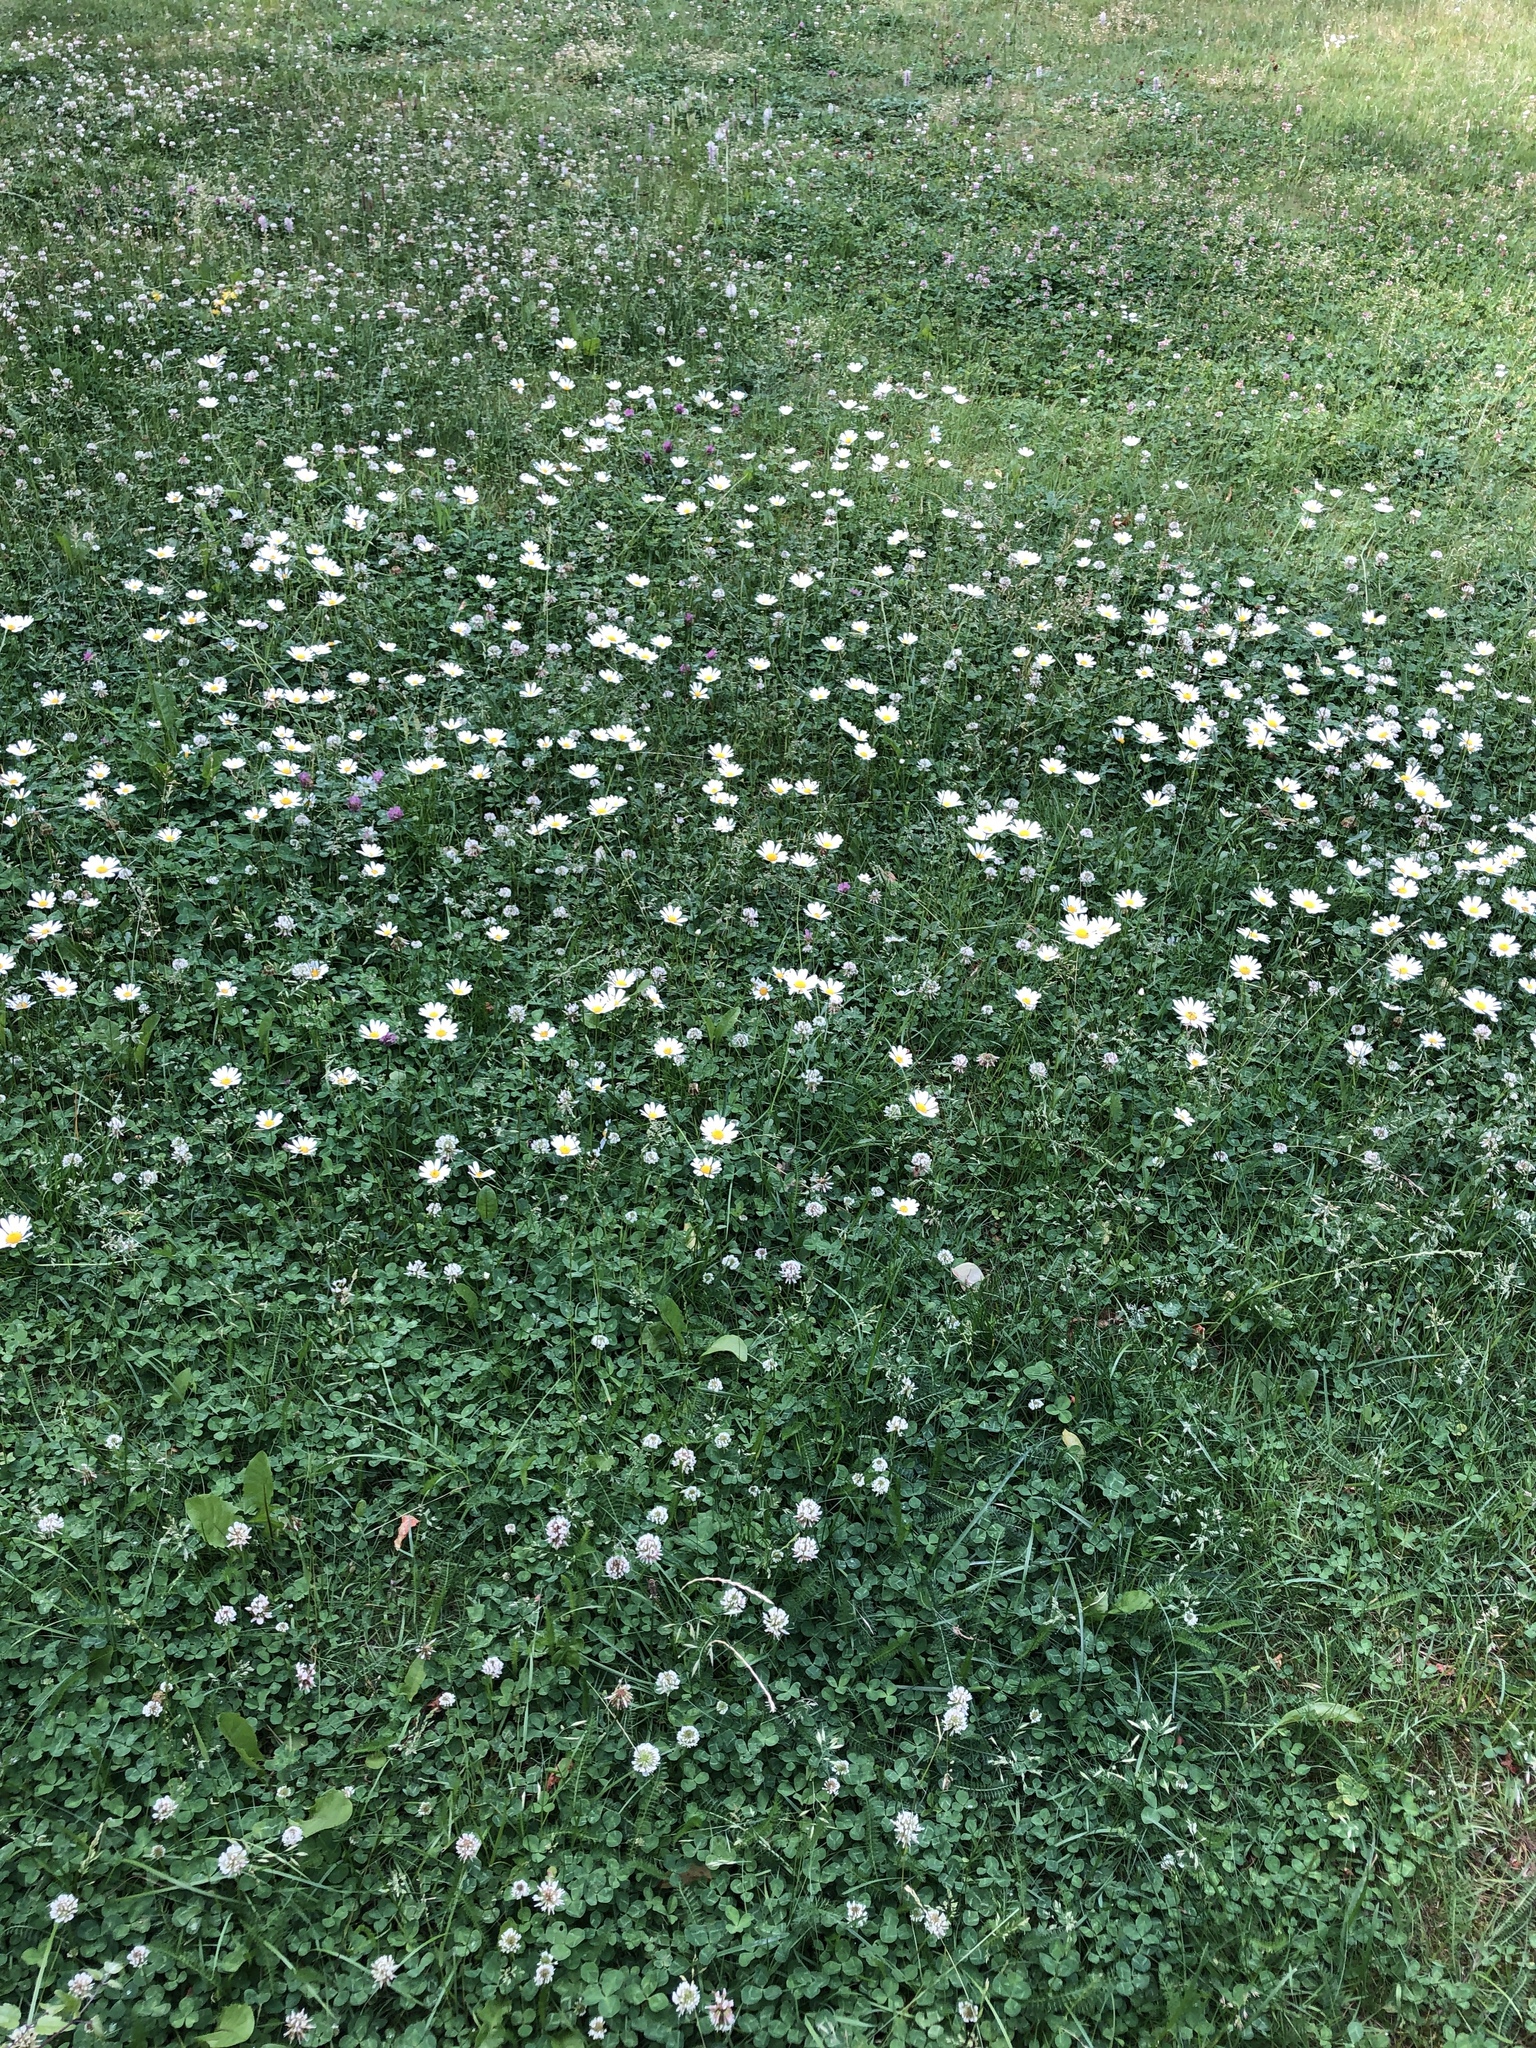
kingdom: Plantae
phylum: Tracheophyta
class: Magnoliopsida
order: Asterales
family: Asteraceae
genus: Leucanthemum
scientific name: Leucanthemum vulgare
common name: Oxeye daisy
